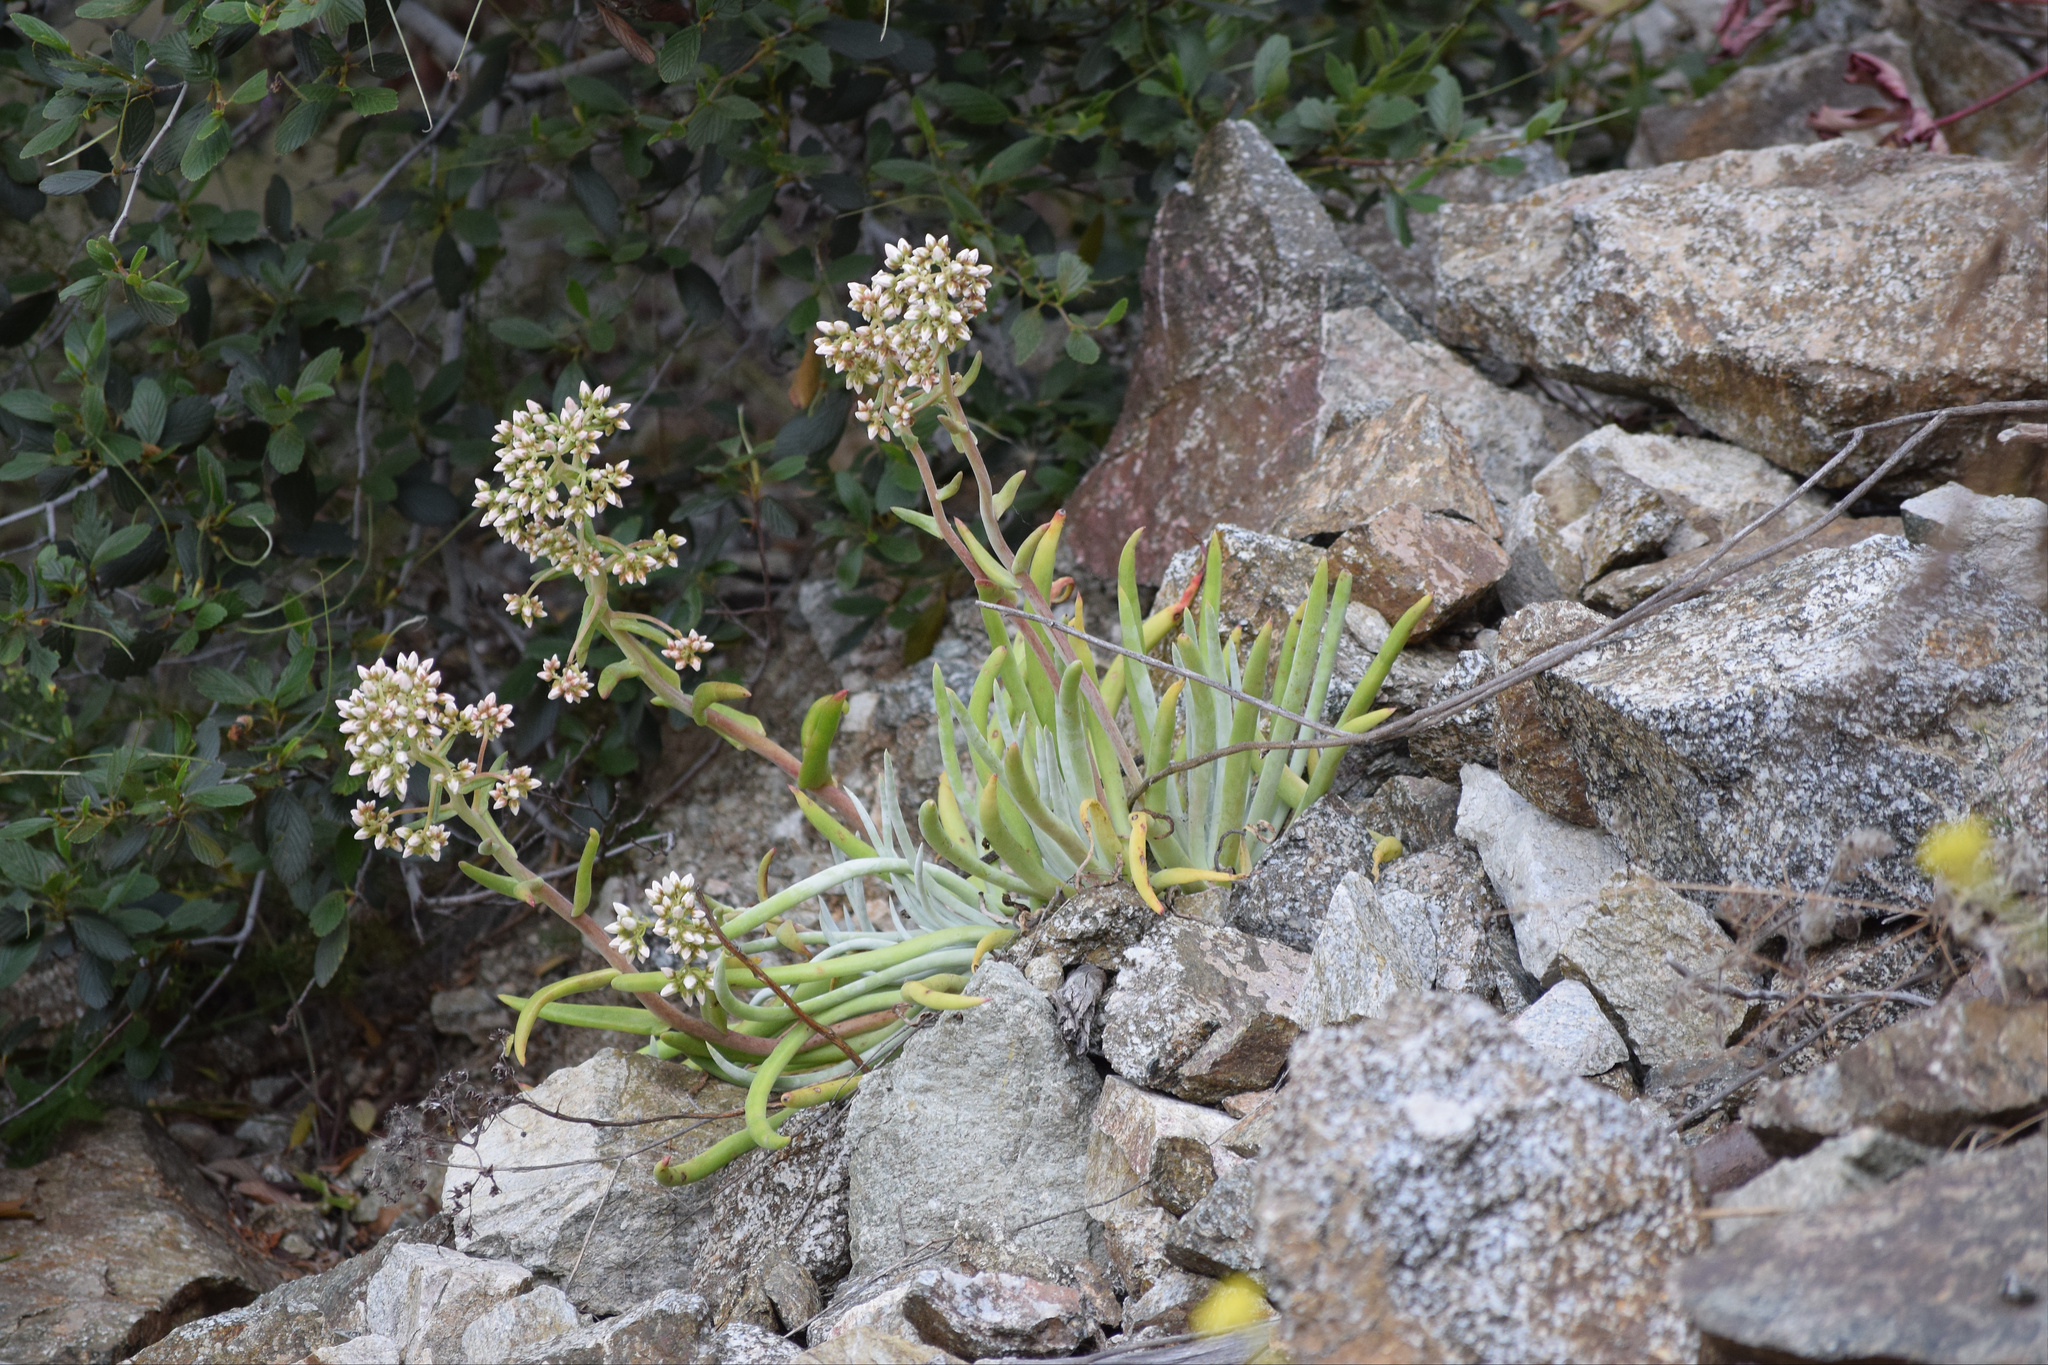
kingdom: Plantae
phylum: Tracheophyta
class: Magnoliopsida
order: Saxifragales
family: Crassulaceae
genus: Dudleya
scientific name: Dudleya densiflora
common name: San gabriel mountains dudleya
